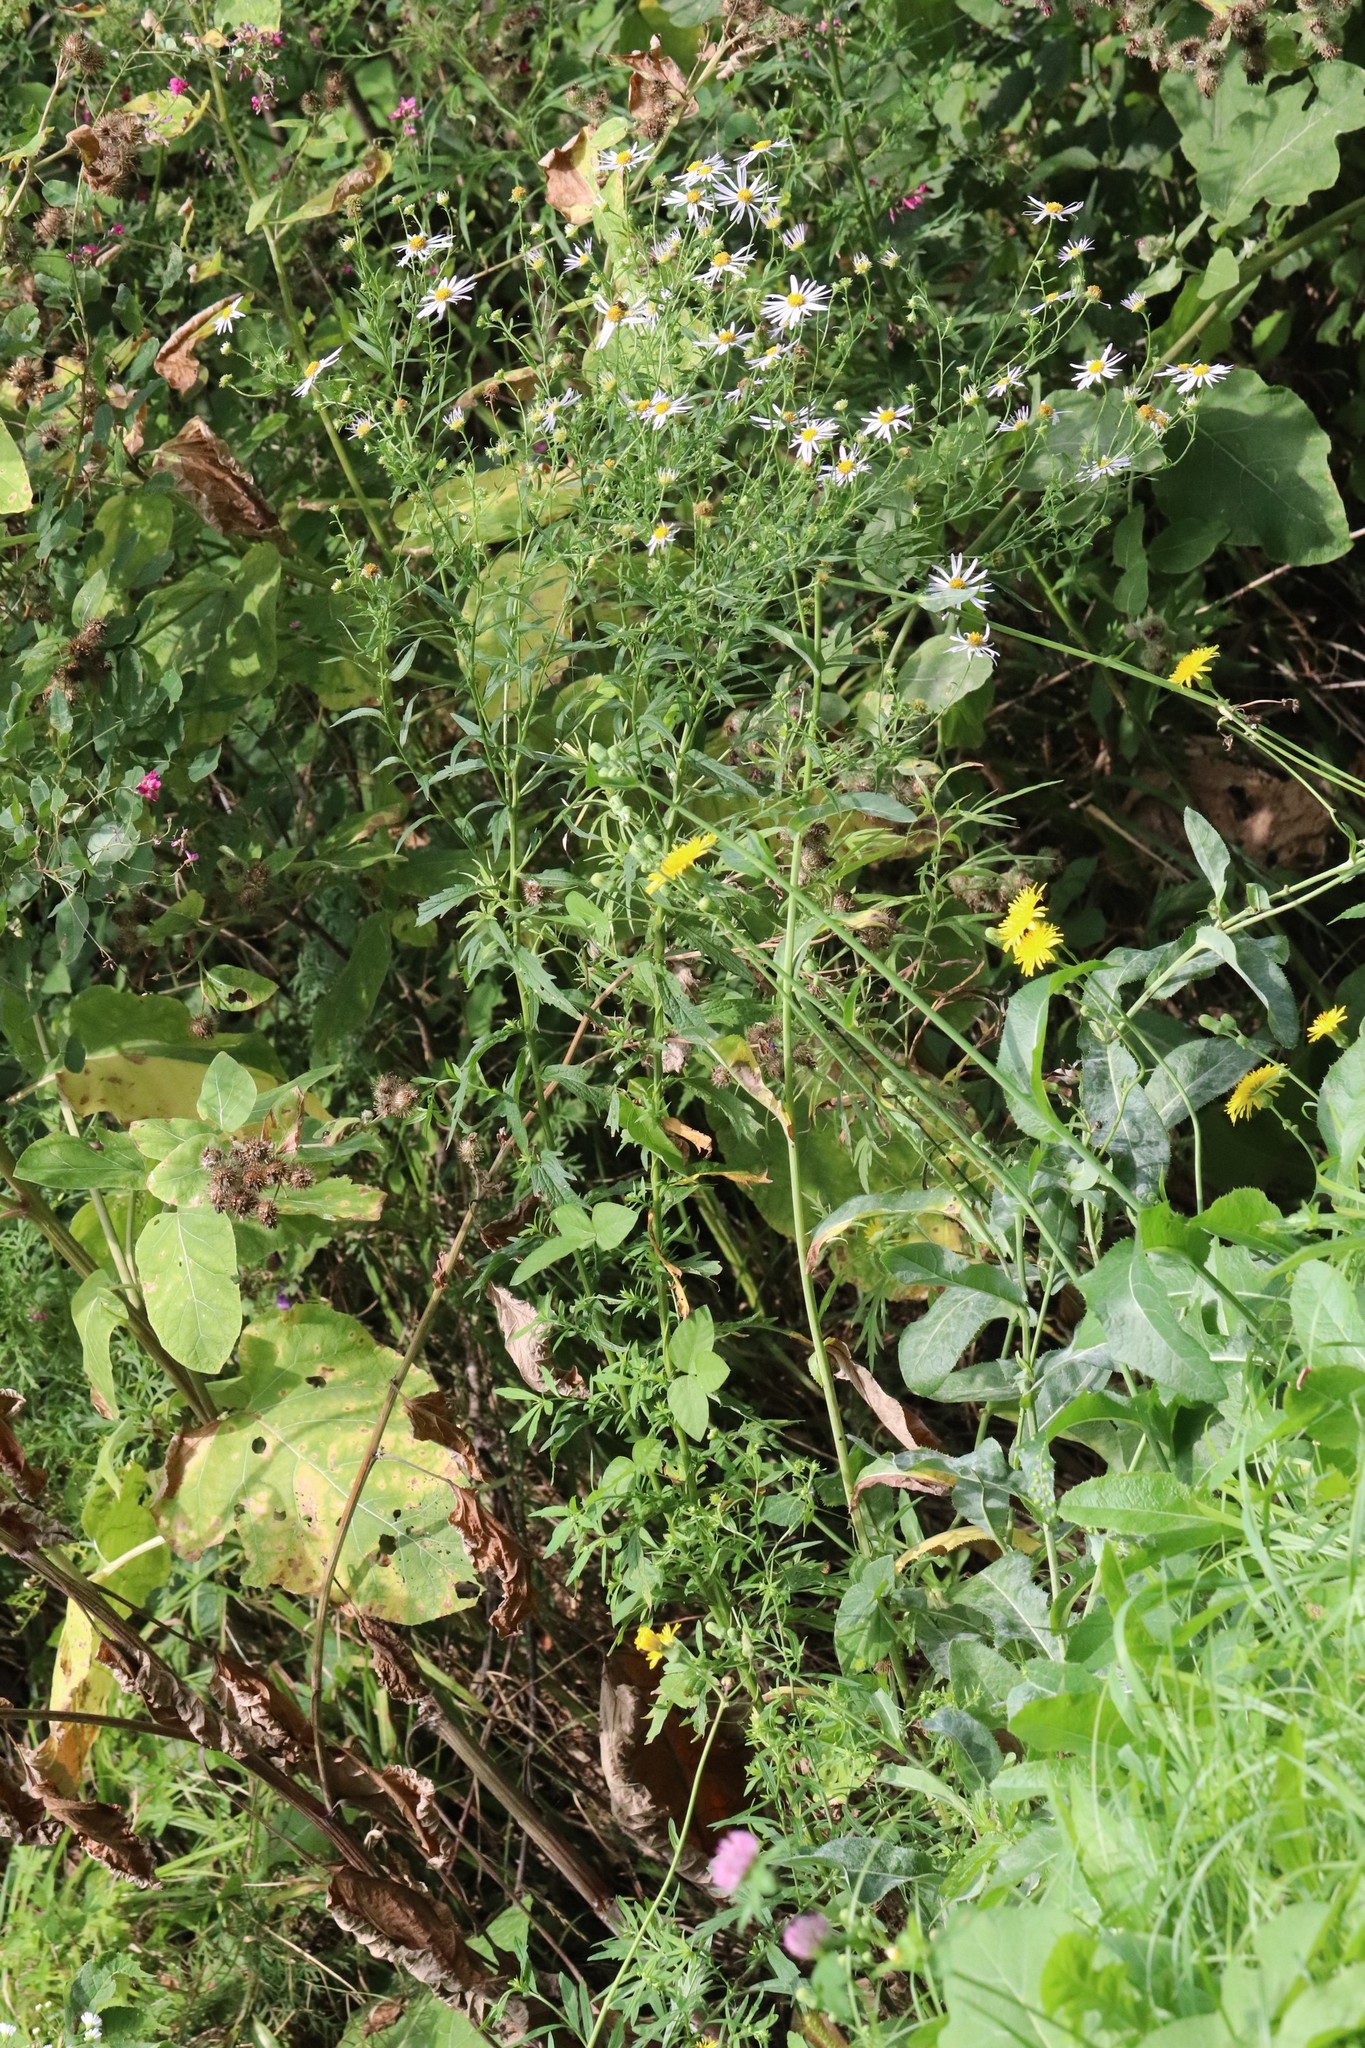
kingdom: Plantae
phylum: Tracheophyta
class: Magnoliopsida
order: Asterales
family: Asteraceae
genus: Kalimeris
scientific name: Kalimeris incisa
